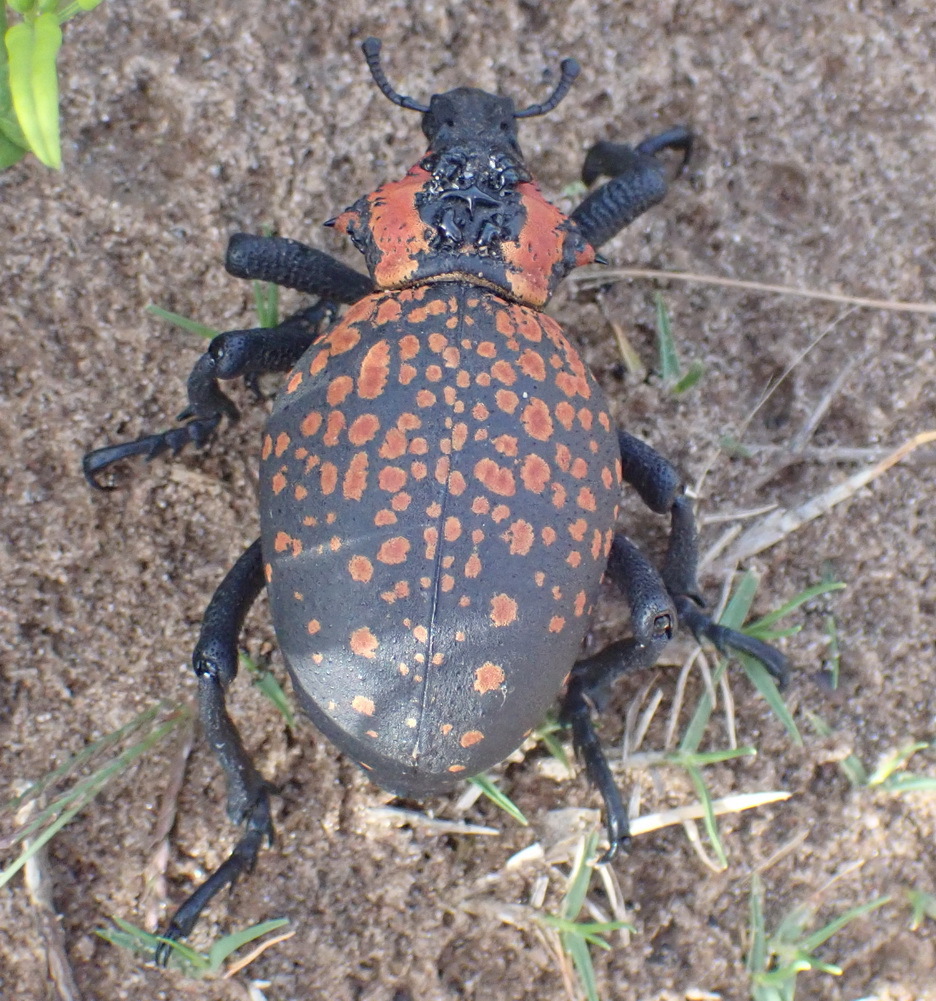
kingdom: Animalia
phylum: Arthropoda
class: Insecta
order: Coleoptera
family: Brachyceridae
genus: Brachycerus
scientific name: Brachycerus ornatus
